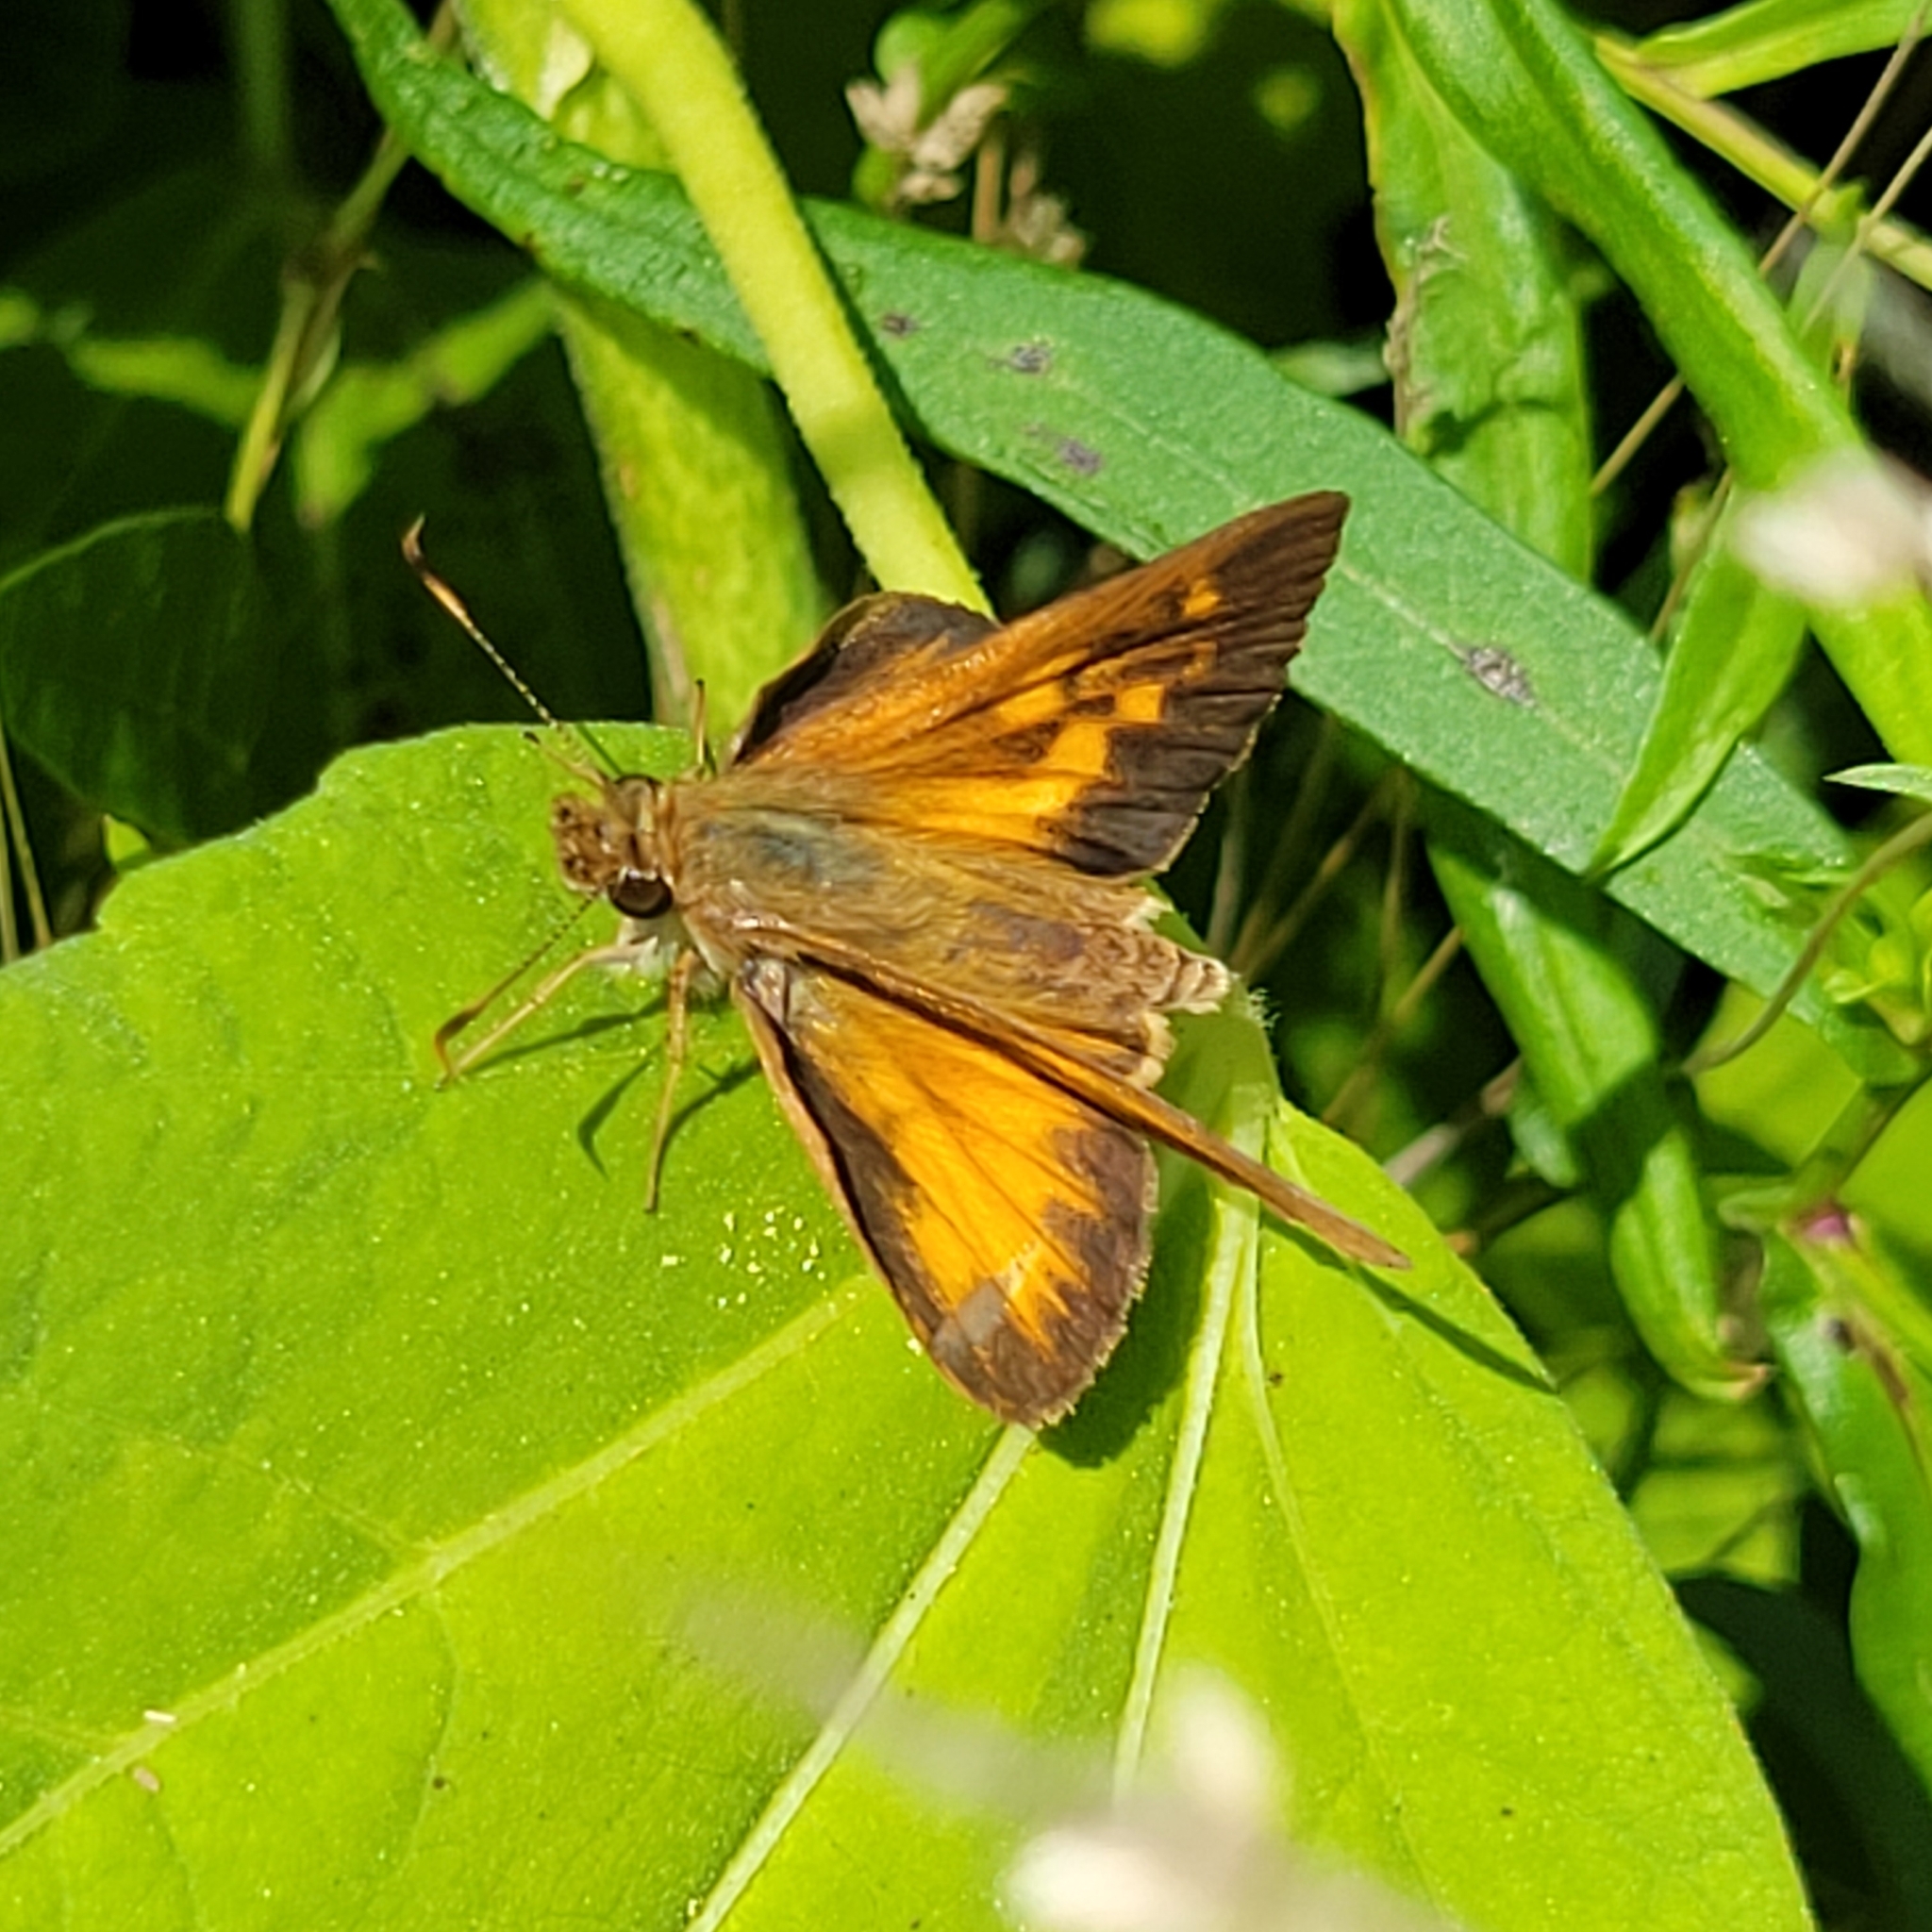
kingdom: Animalia
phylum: Arthropoda
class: Insecta
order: Lepidoptera
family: Hesperiidae
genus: Poanes
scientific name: Poanes viator
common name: Broad-winged skipper
